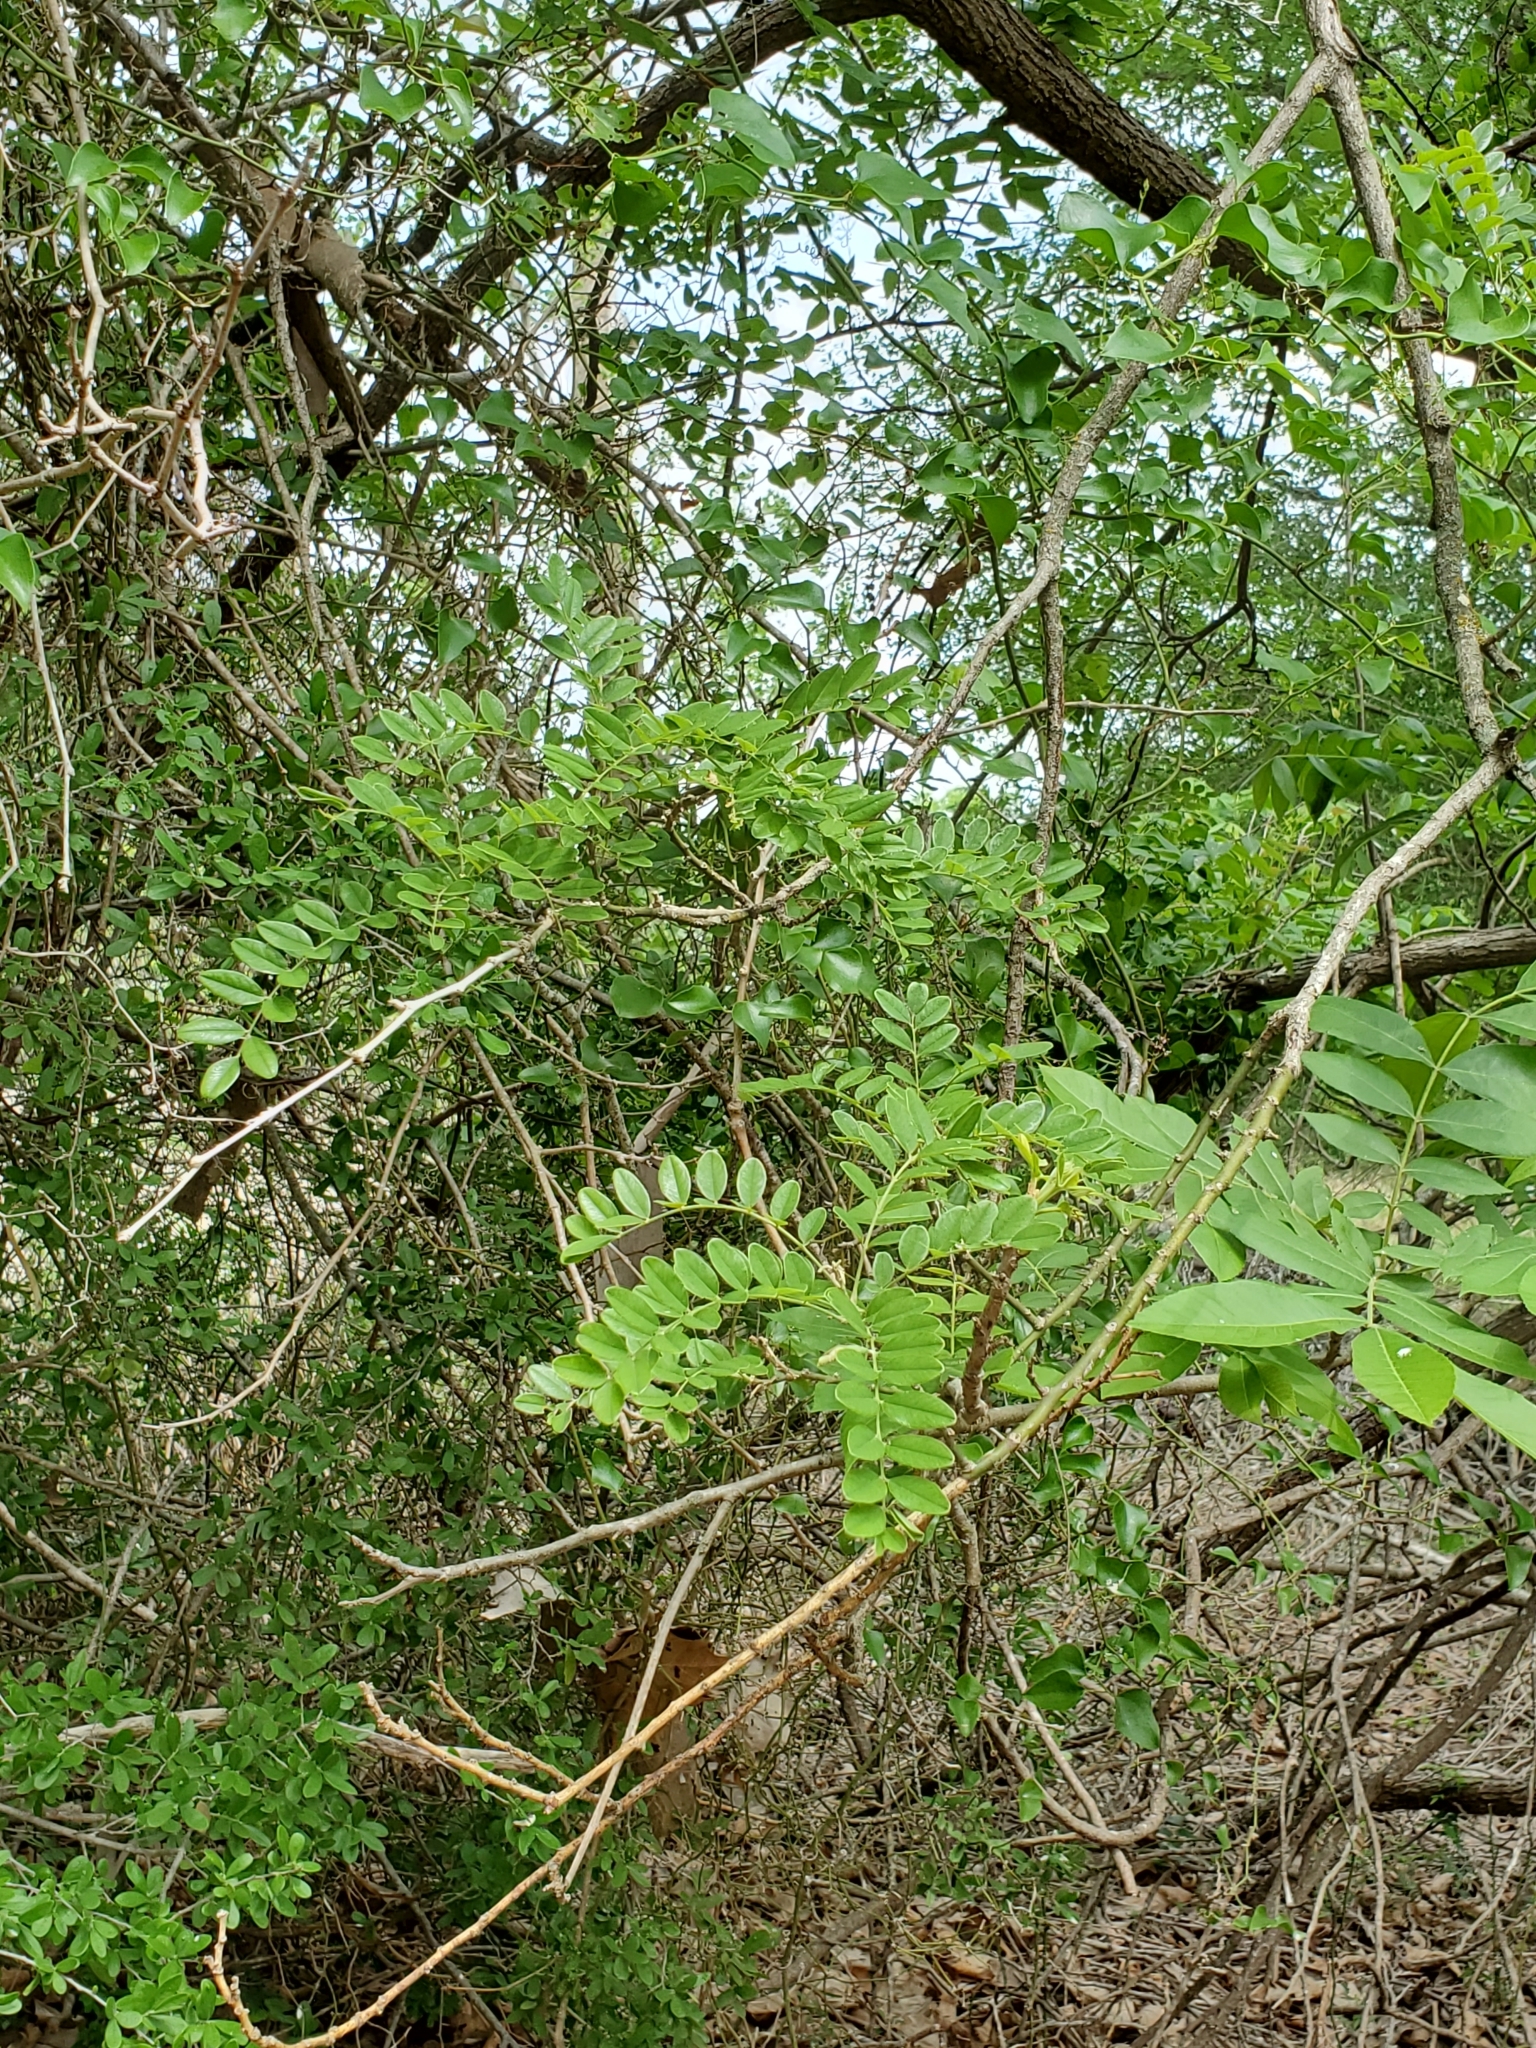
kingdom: Plantae
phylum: Tracheophyta
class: Magnoliopsida
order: Fabales
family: Fabaceae
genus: Styphnolobium
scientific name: Styphnolobium affine
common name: Texas sophora
